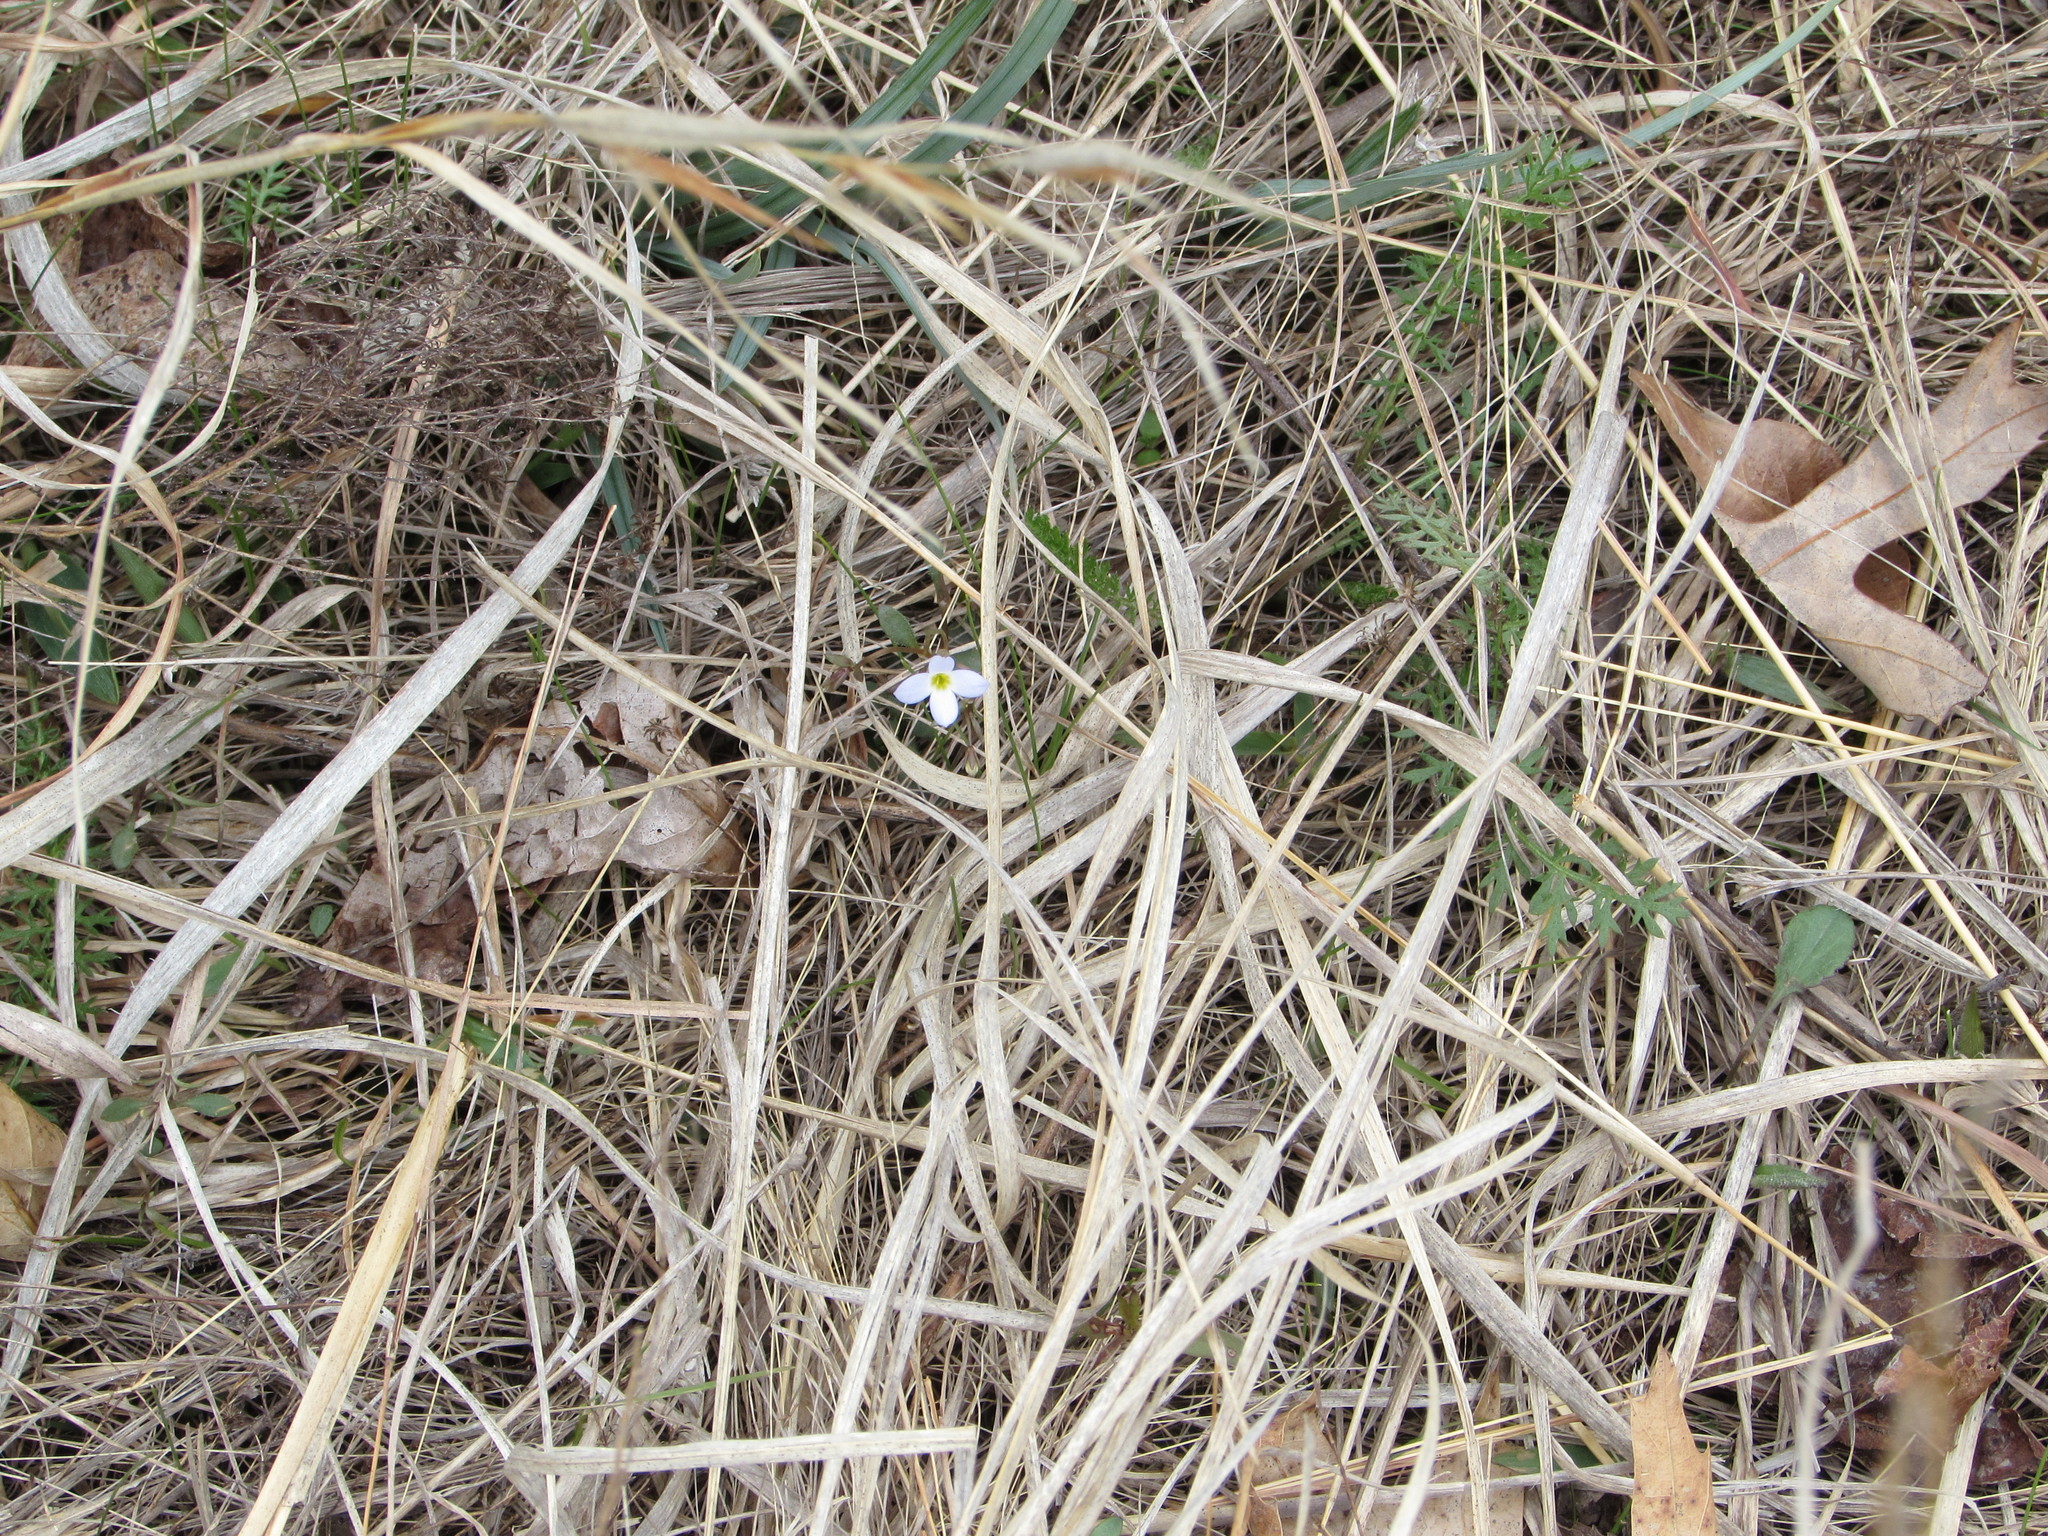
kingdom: Plantae
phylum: Tracheophyta
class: Magnoliopsida
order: Gentianales
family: Rubiaceae
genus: Houstonia
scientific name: Houstonia caerulea
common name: Bluets
